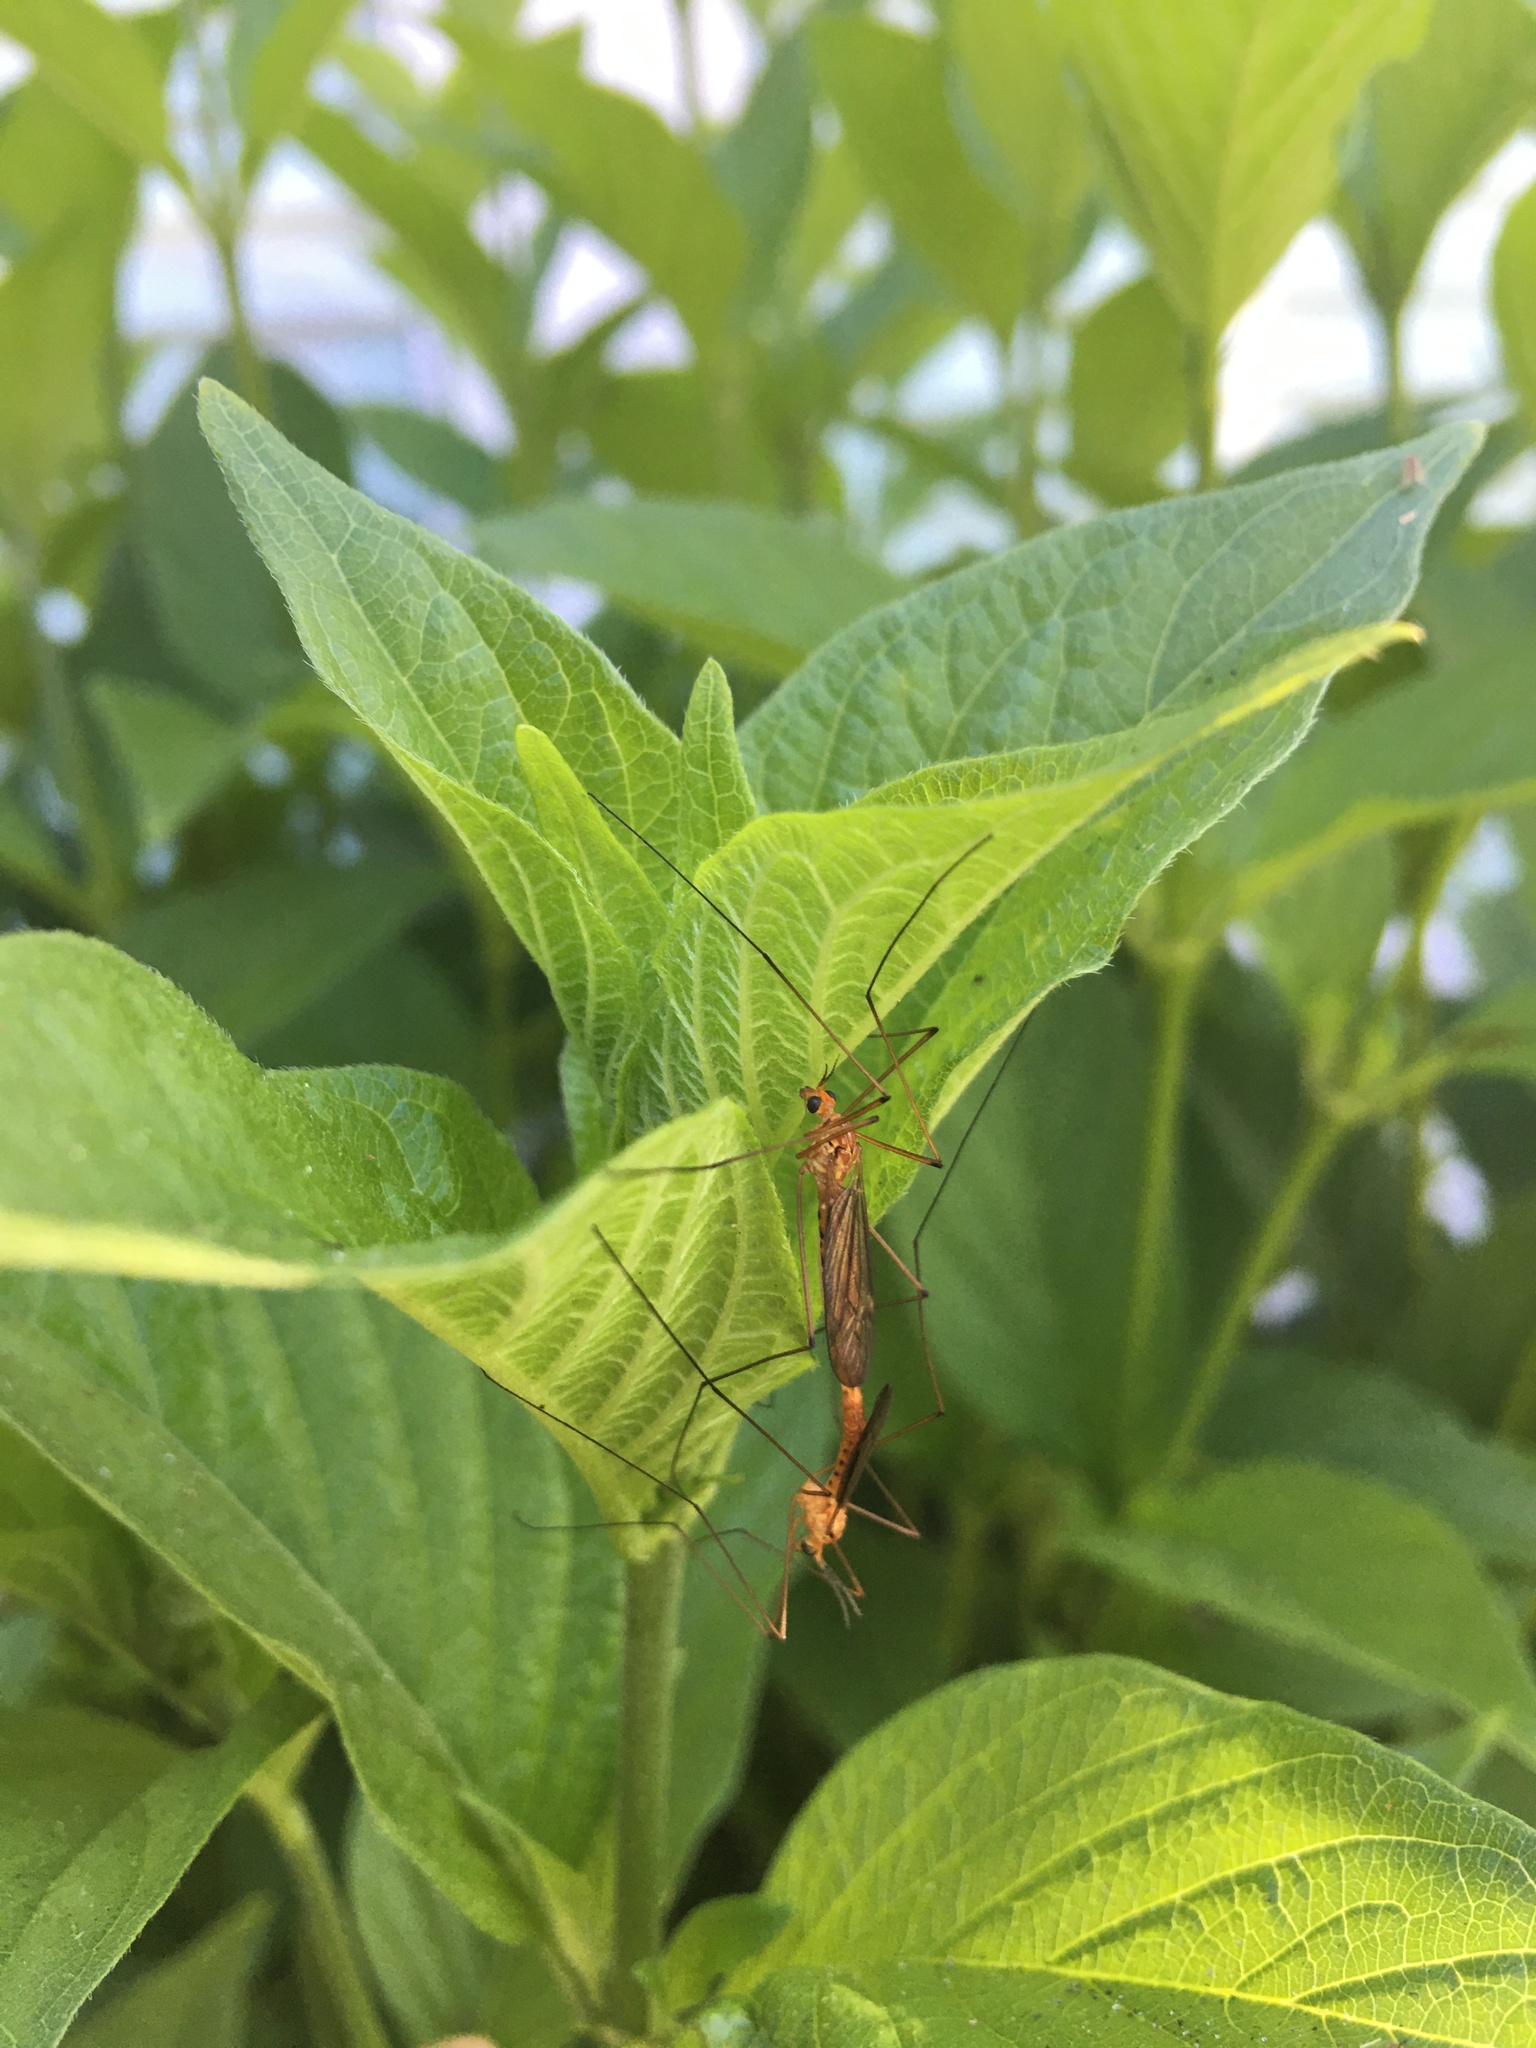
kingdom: Animalia
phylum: Arthropoda
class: Insecta
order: Diptera
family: Tipulidae
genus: Nephrotoma
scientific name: Nephrotoma
